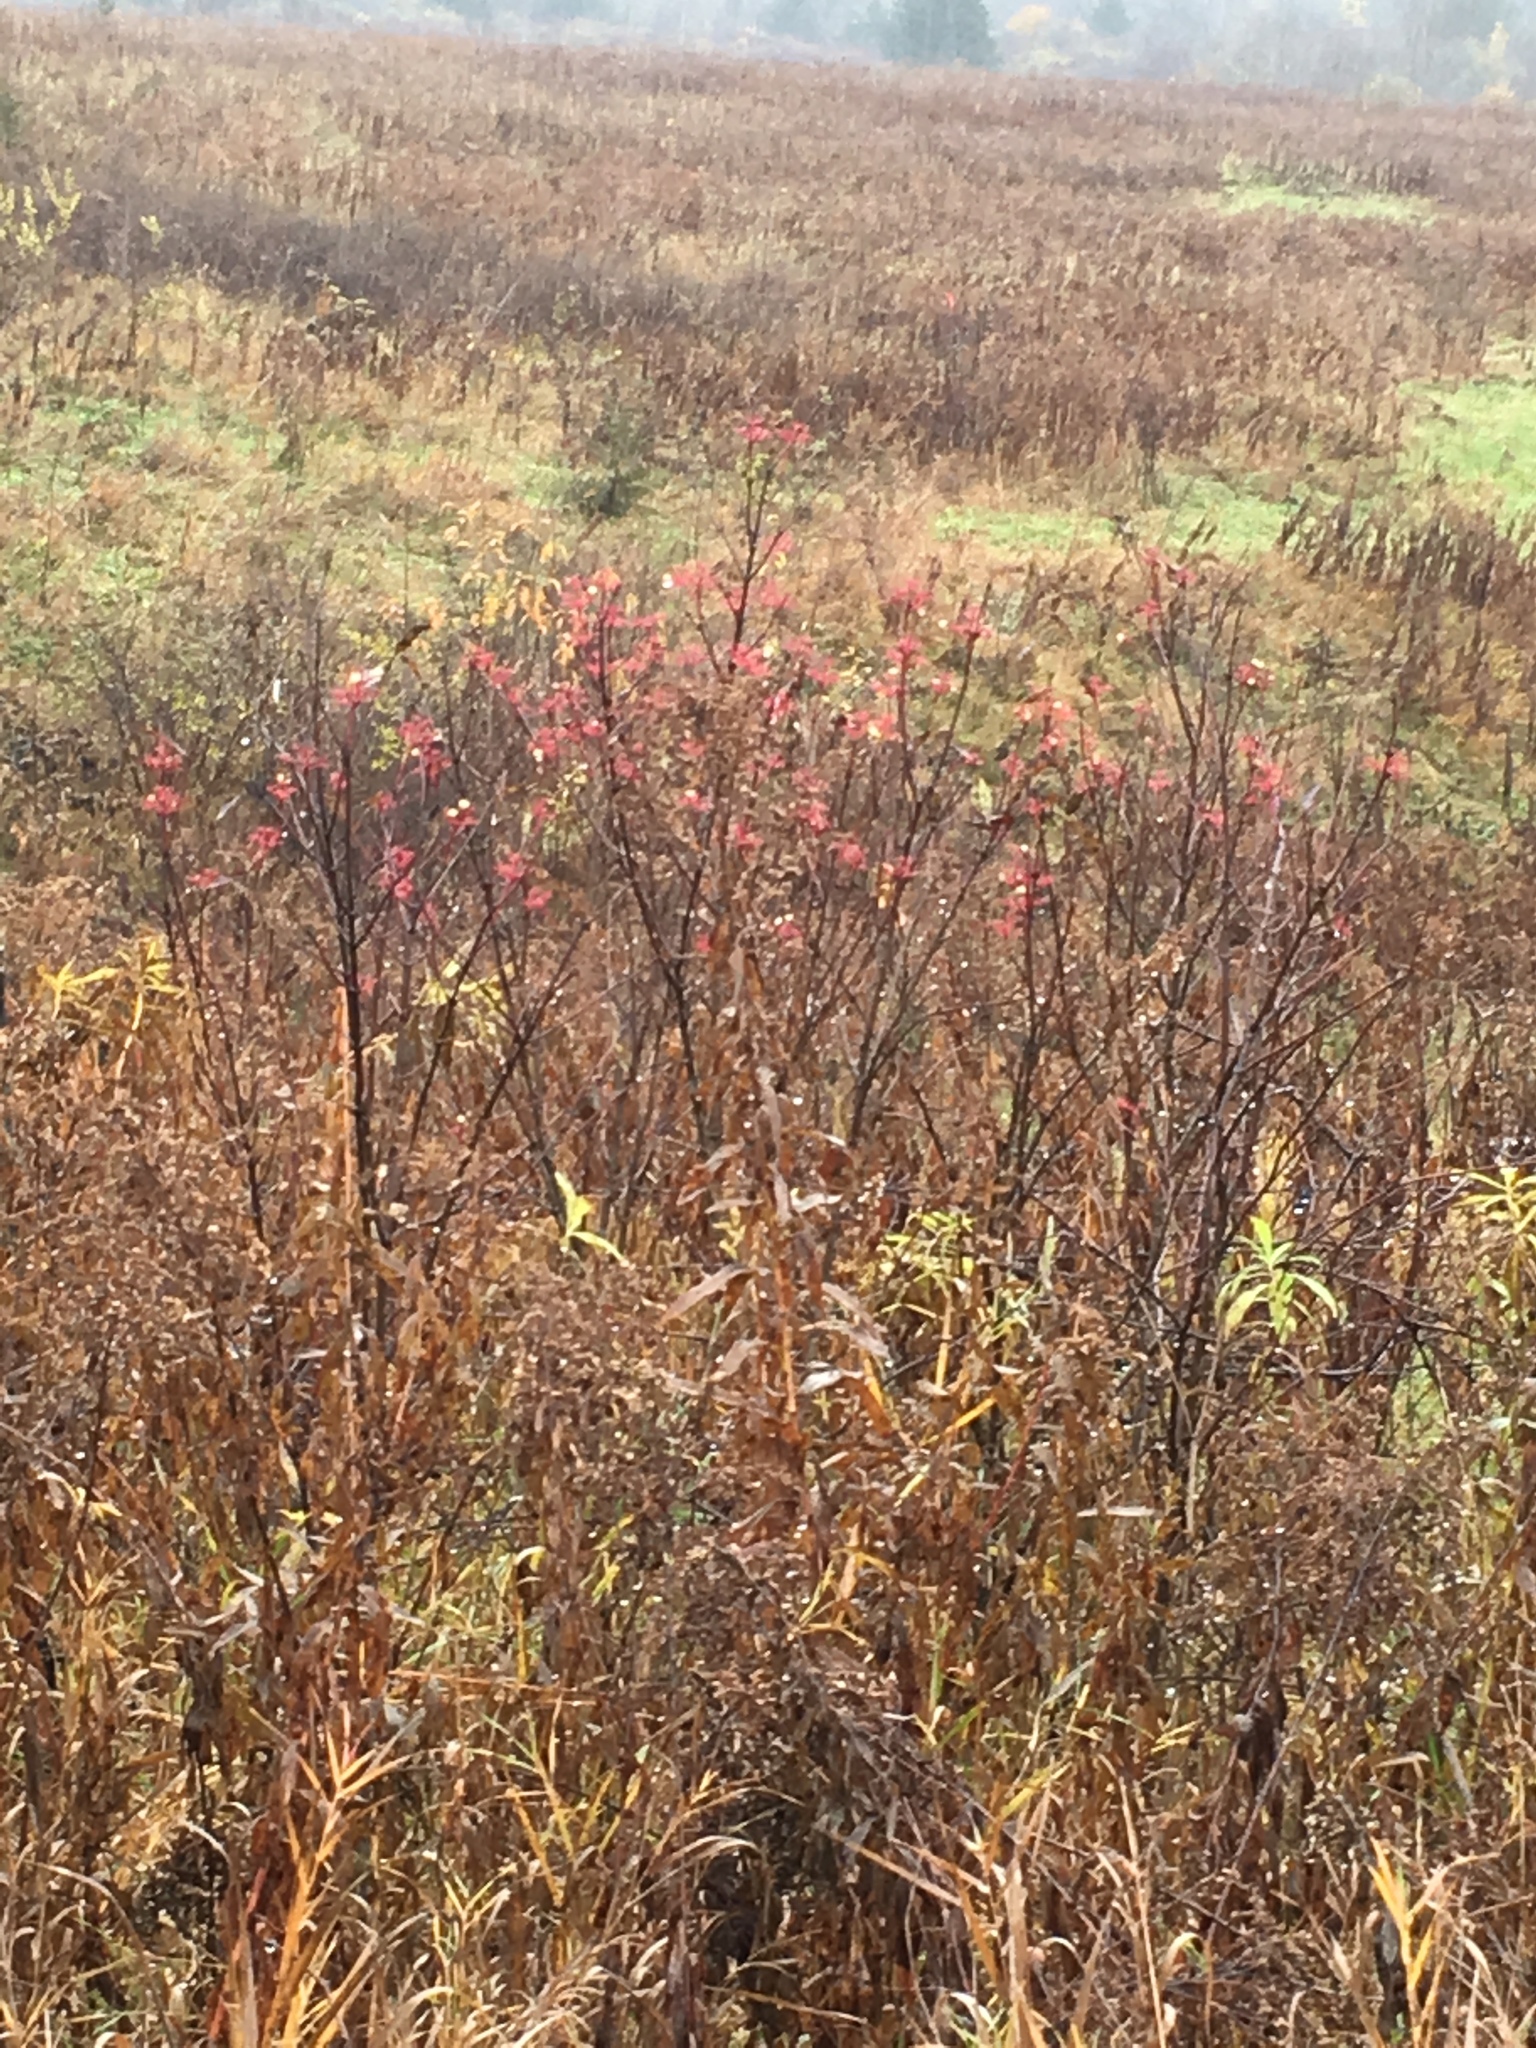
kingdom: Plantae
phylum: Tracheophyta
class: Magnoliopsida
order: Cornales
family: Cornaceae
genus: Cornus
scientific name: Cornus racemosa
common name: Panicled dogwood
